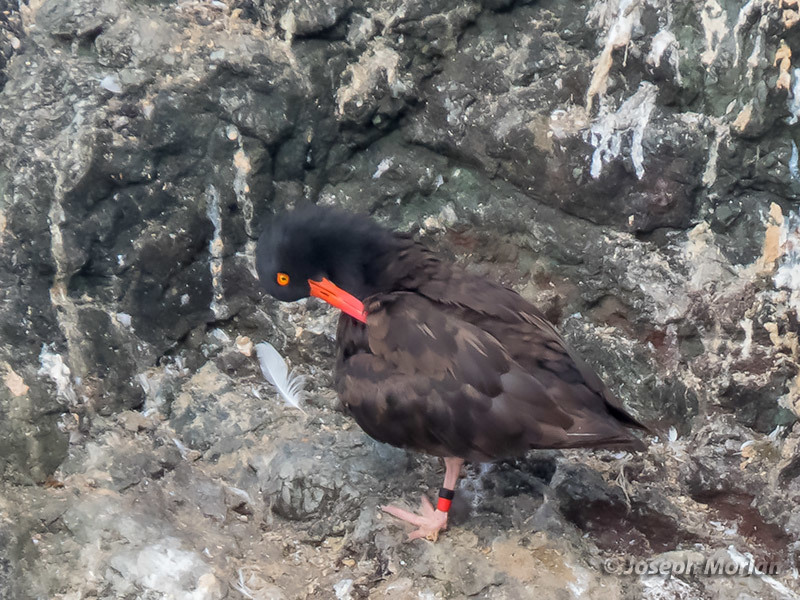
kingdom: Animalia
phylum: Chordata
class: Aves
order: Charadriiformes
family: Haematopodidae
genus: Haematopus
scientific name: Haematopus bachmani
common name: Black oystercatcher
